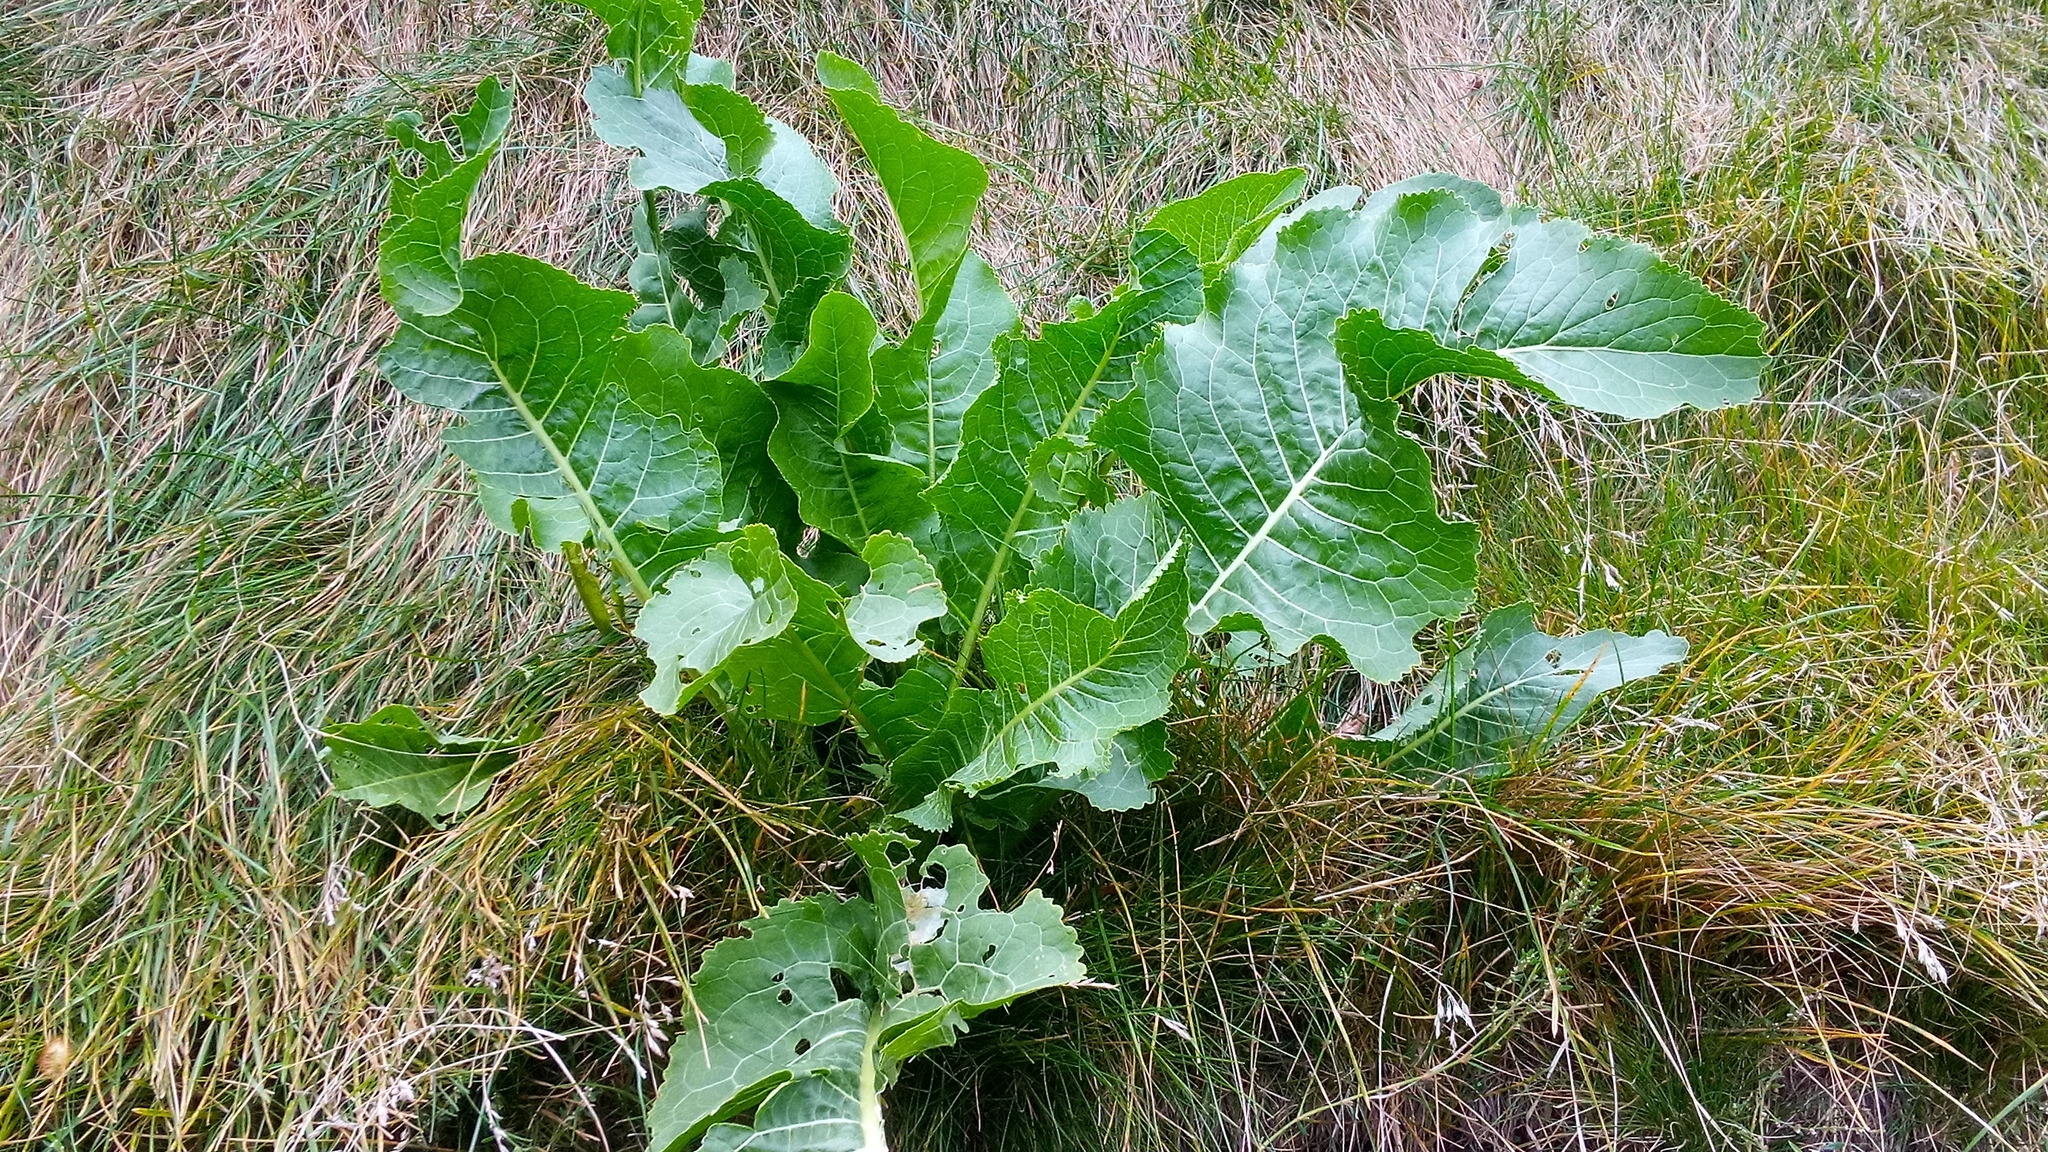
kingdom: Plantae
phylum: Tracheophyta
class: Magnoliopsida
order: Brassicales
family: Brassicaceae
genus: Armoracia
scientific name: Armoracia rusticana
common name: Horseradish
